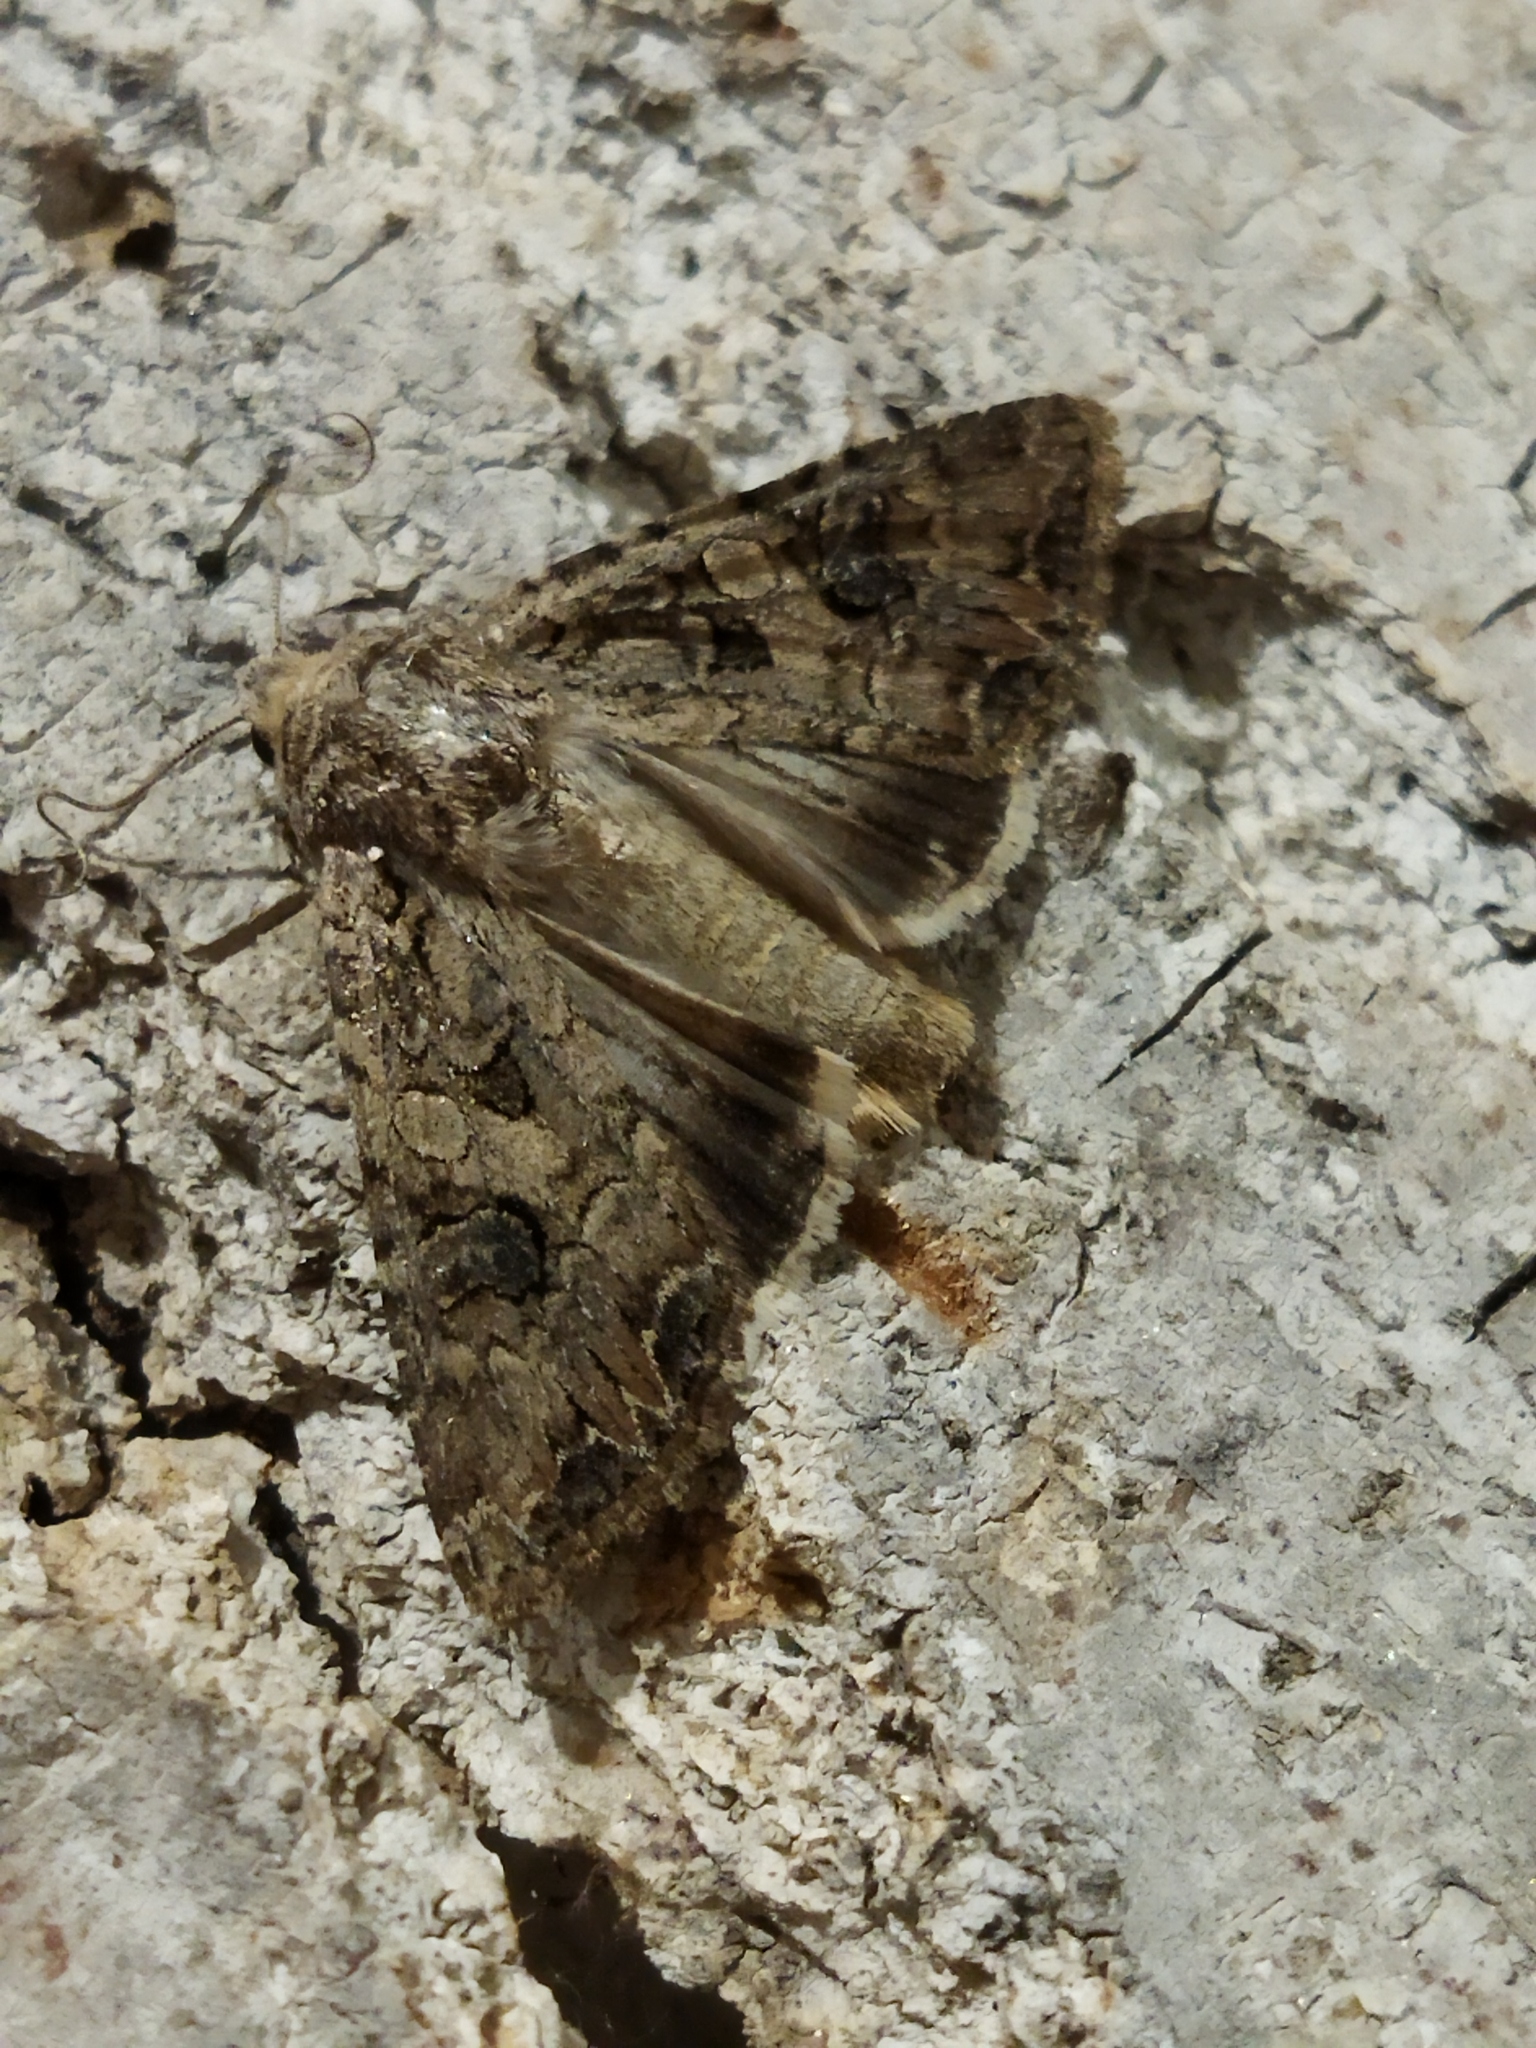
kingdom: Animalia
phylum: Arthropoda
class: Insecta
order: Lepidoptera
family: Noctuidae
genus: Anarta
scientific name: Anarta trifolii
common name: Clover cutworm moth
